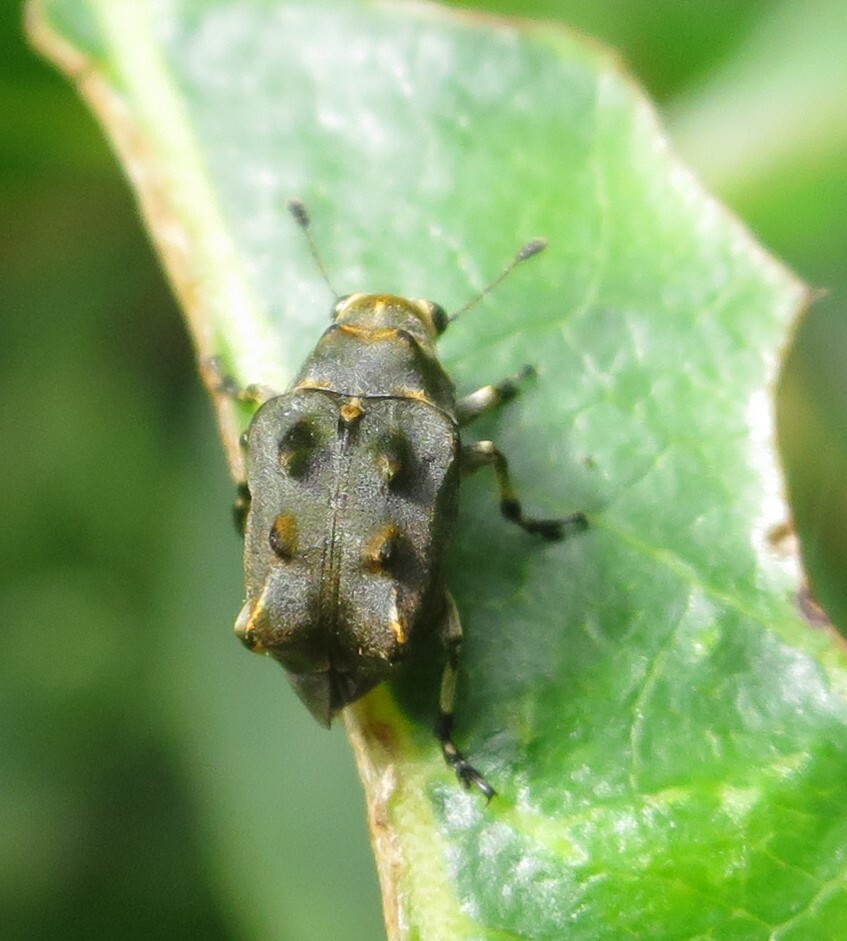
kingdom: Animalia
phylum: Arthropoda
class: Insecta
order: Coleoptera
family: Anthribidae
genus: Gynarchaeus
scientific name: Gynarchaeus
